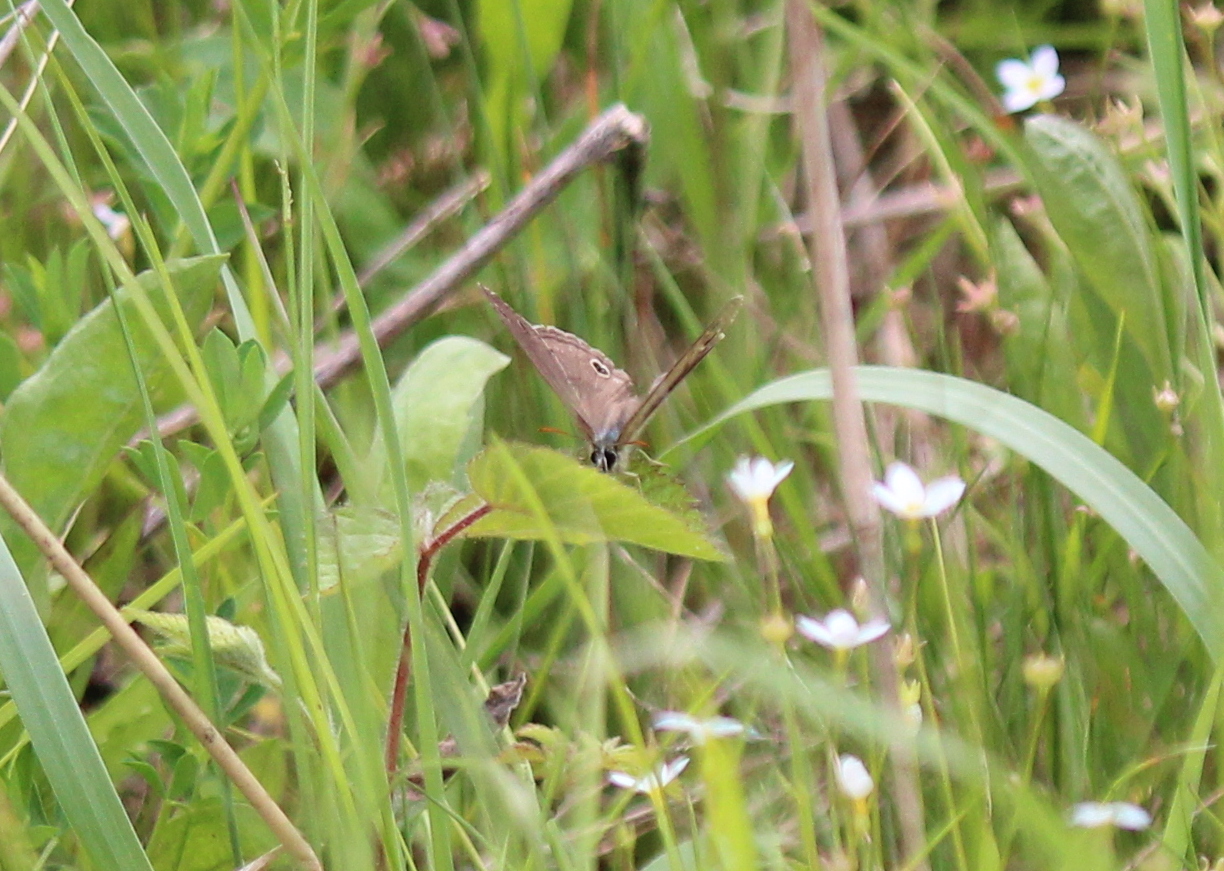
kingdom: Animalia
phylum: Arthropoda
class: Insecta
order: Lepidoptera
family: Nymphalidae
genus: Euptychia
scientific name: Euptychia cymela
